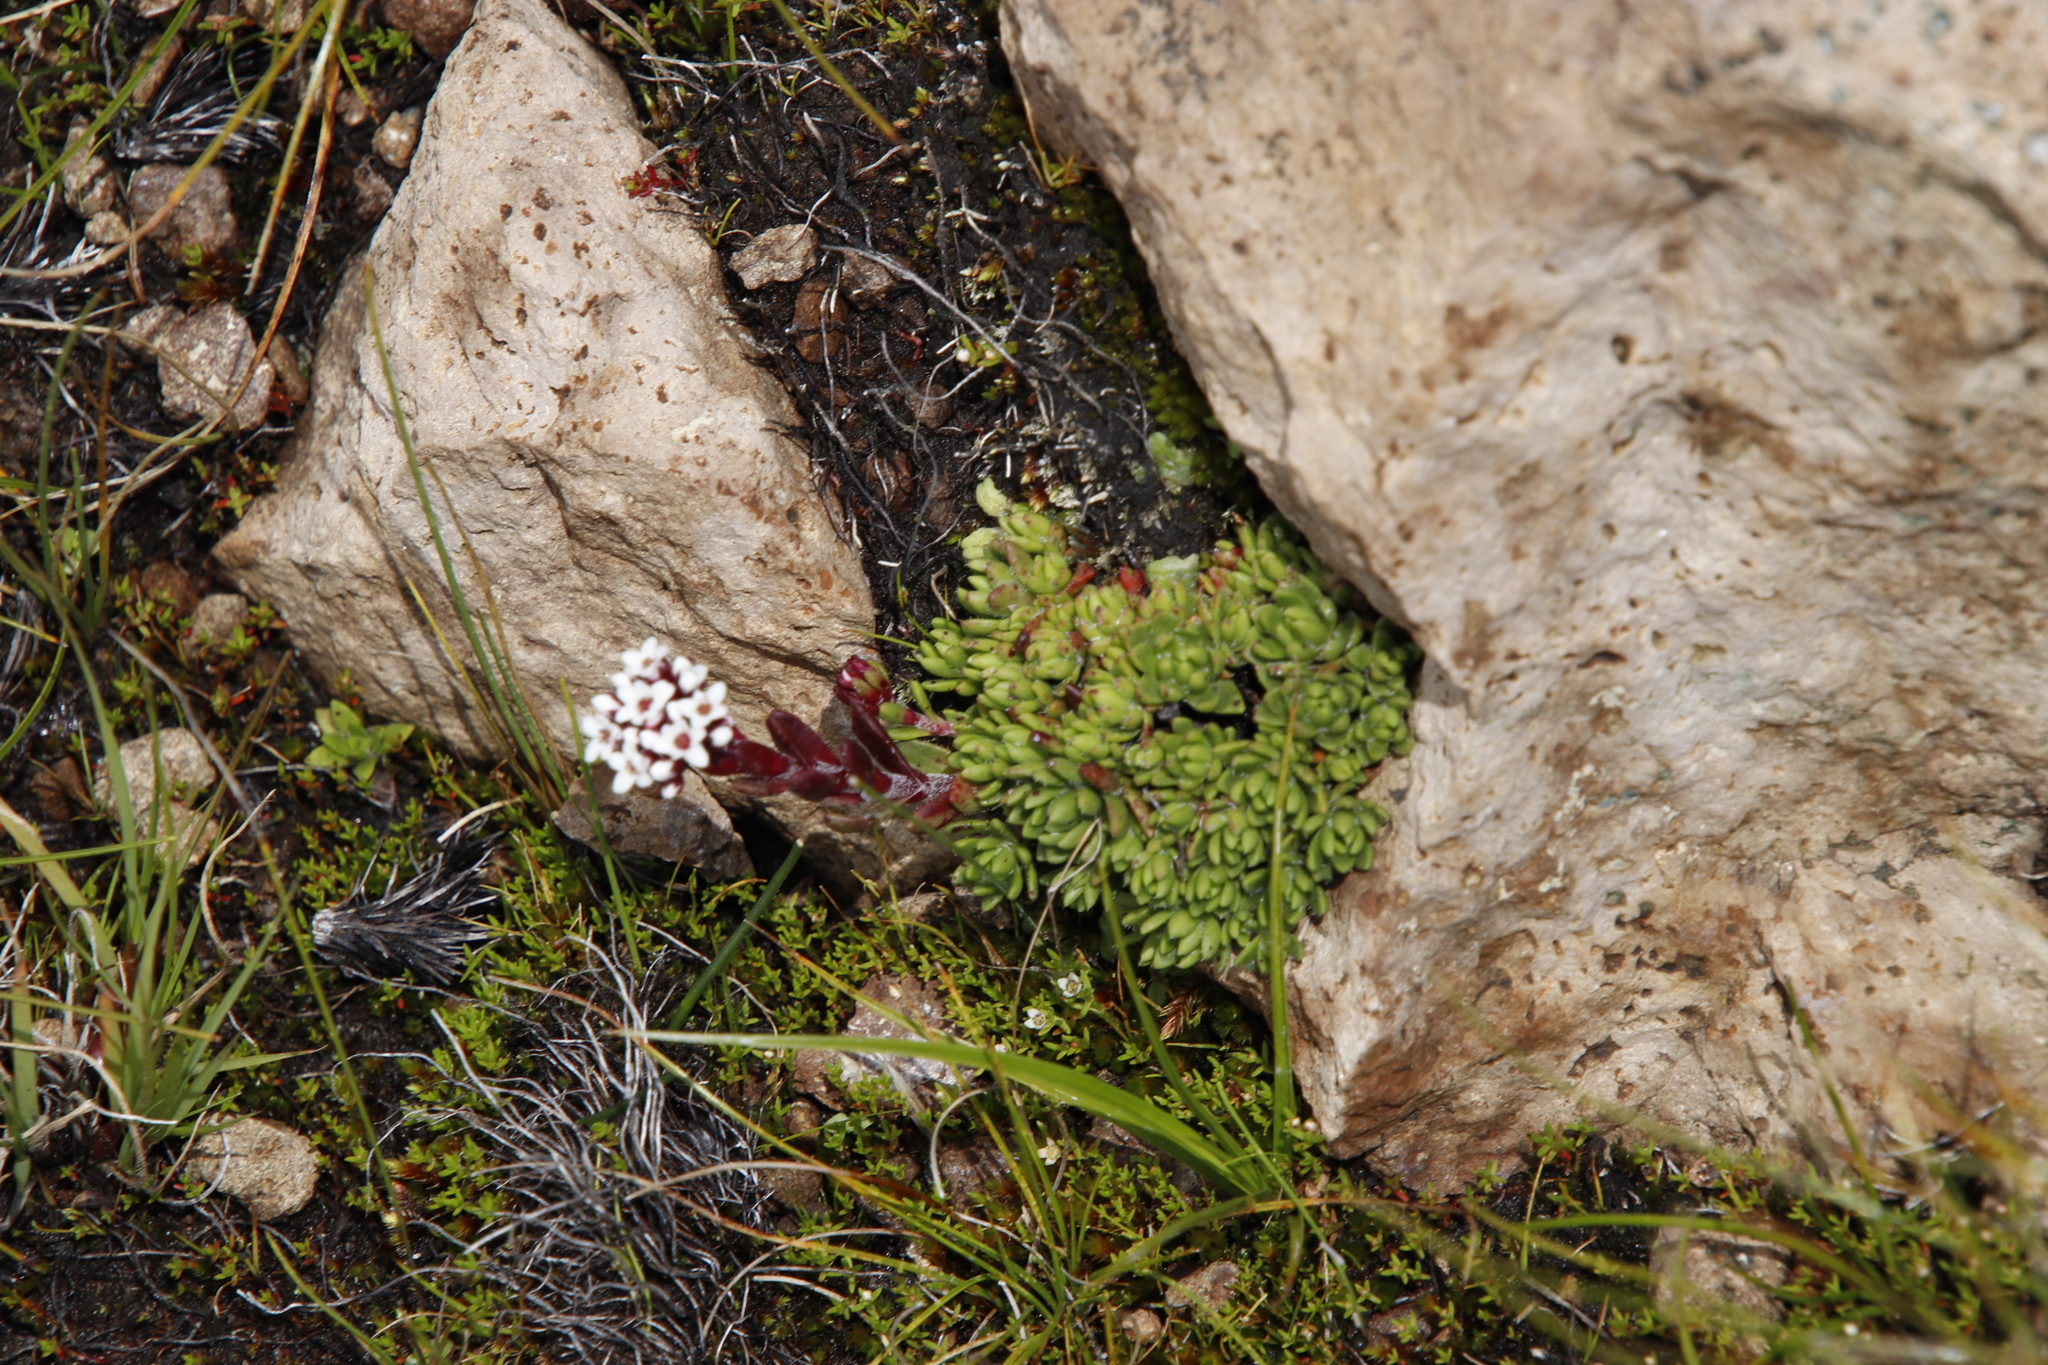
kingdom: Plantae
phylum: Tracheophyta
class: Magnoliopsida
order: Saxifragales
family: Crassulaceae
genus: Crassula
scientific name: Crassula setulosa
